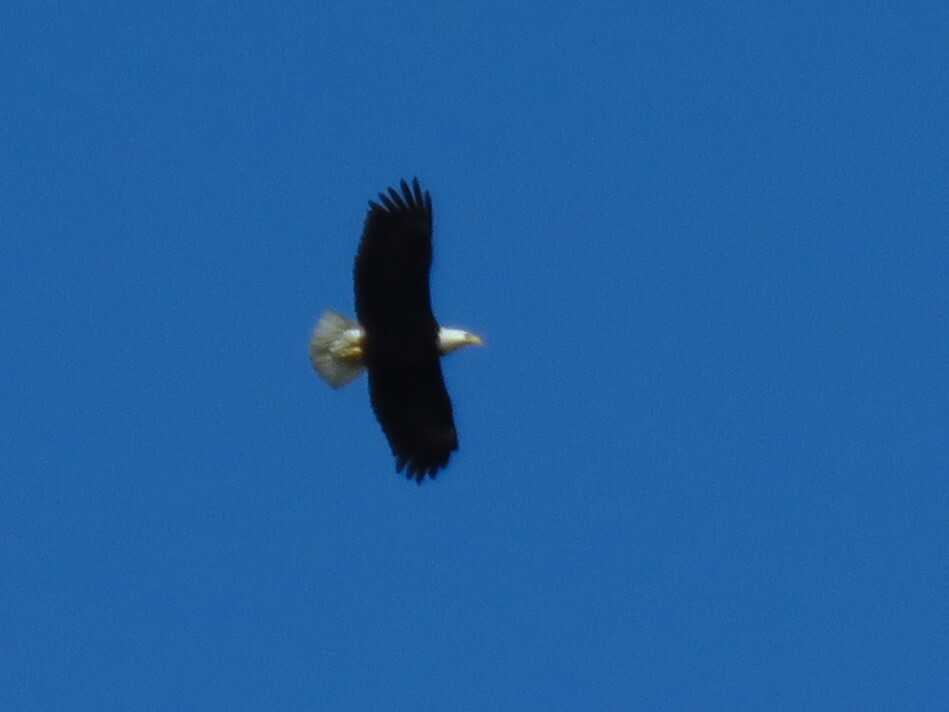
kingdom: Animalia
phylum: Chordata
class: Aves
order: Accipitriformes
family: Accipitridae
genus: Haliaeetus
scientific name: Haliaeetus leucocephalus
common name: Bald eagle
